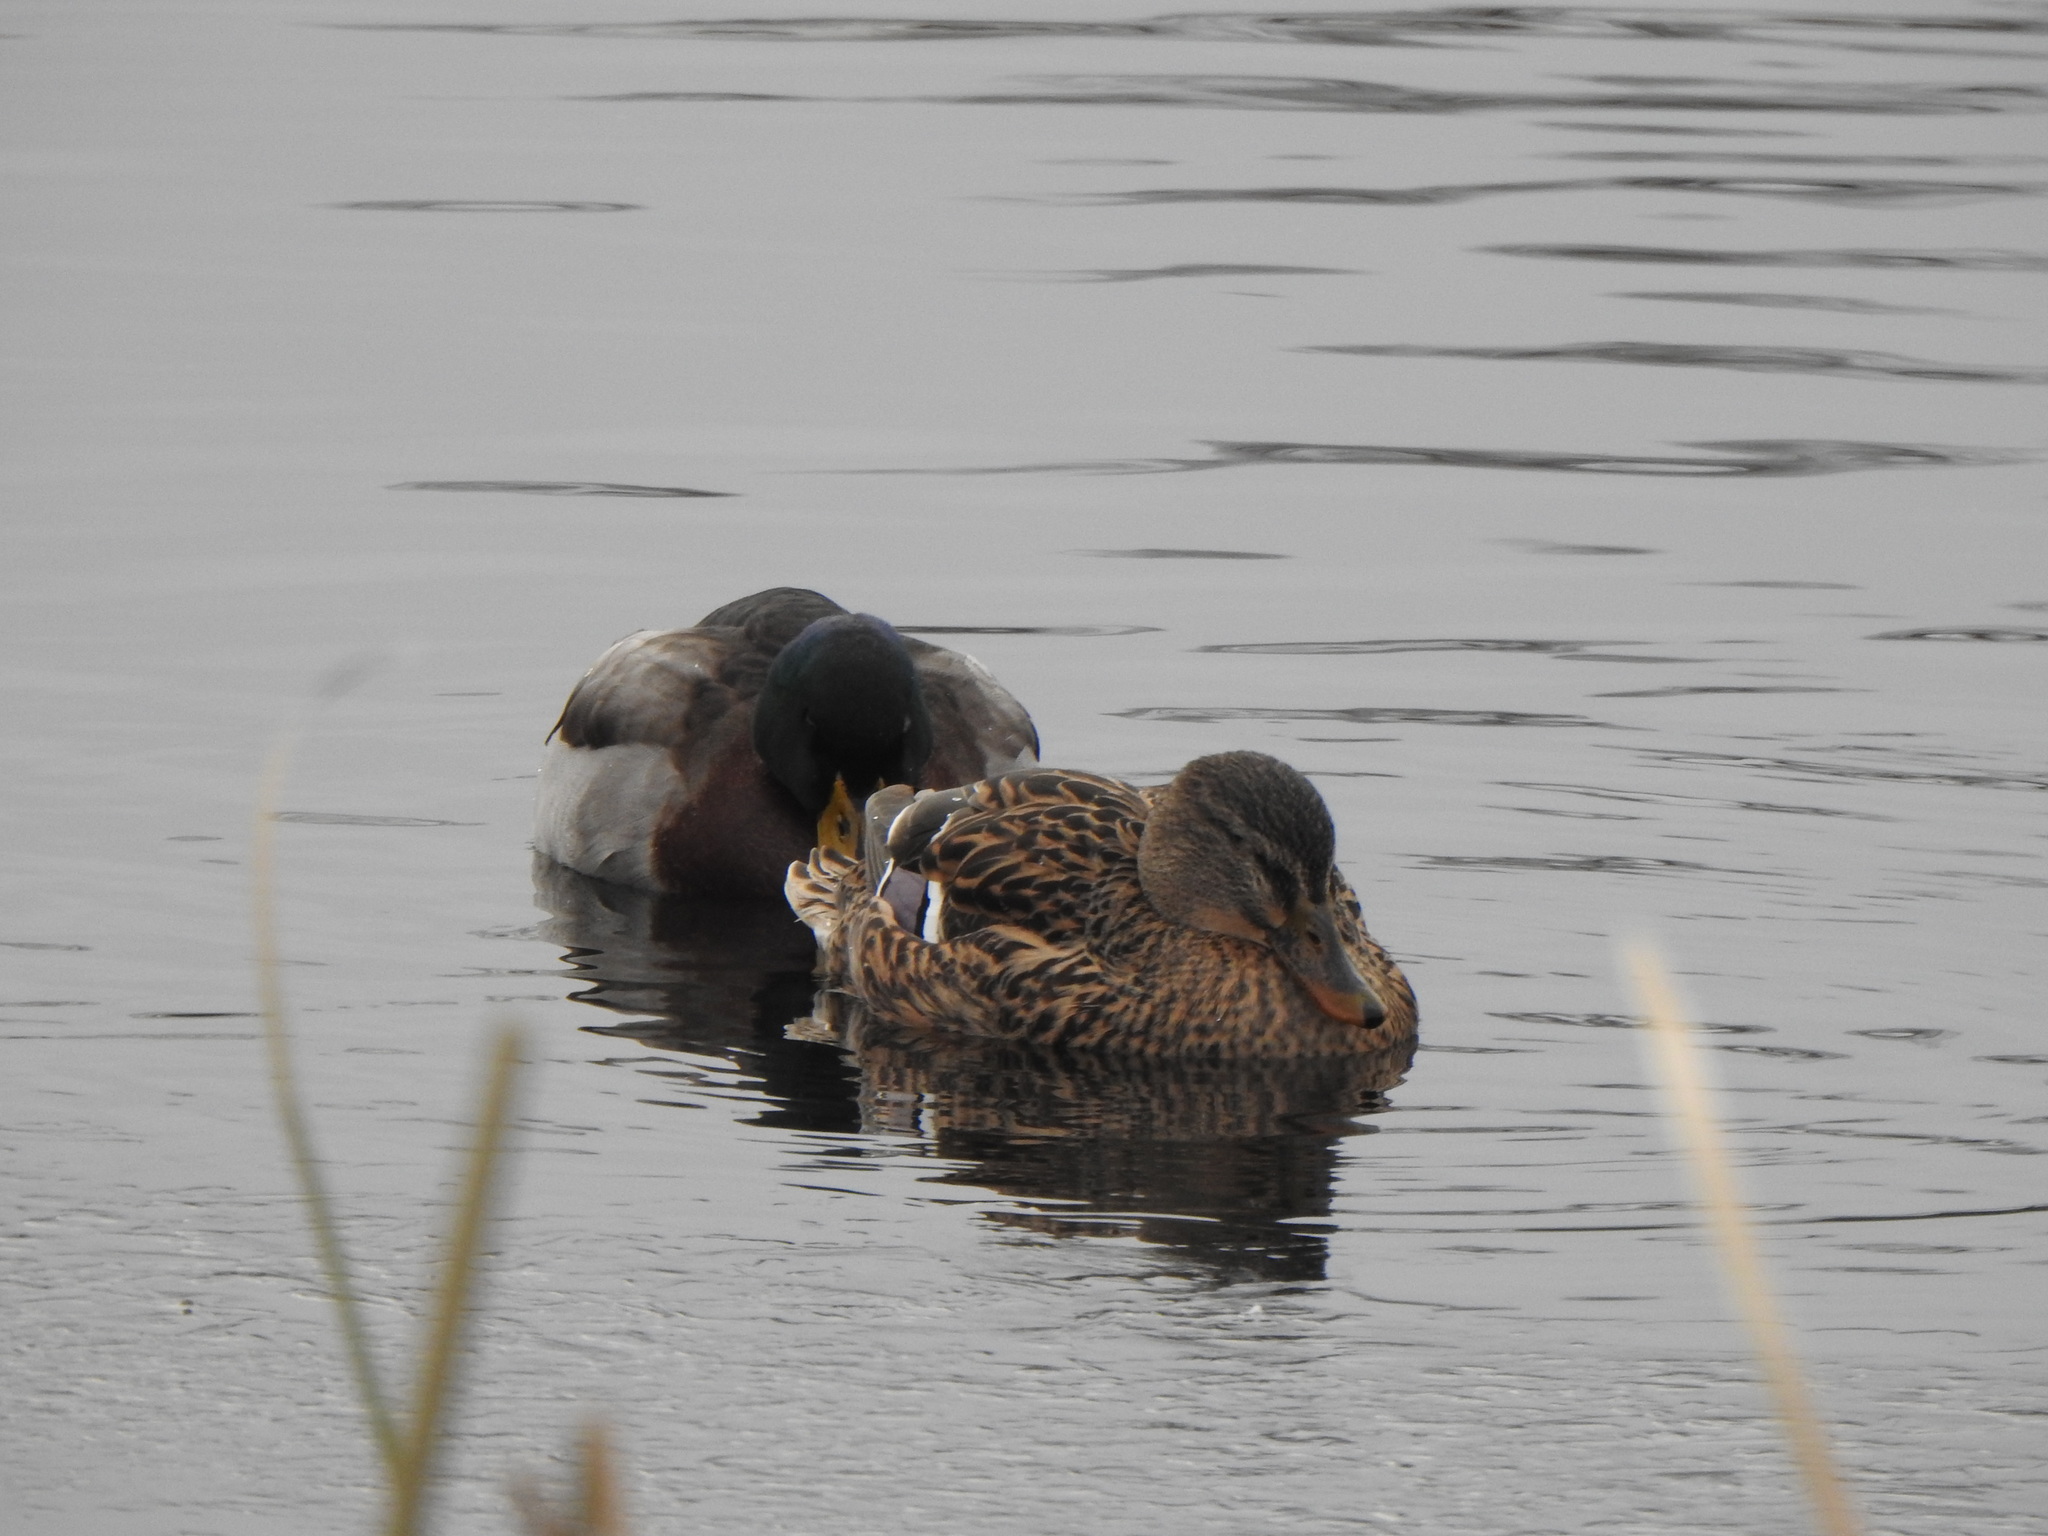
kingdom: Animalia
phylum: Chordata
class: Aves
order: Anseriformes
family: Anatidae
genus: Anas
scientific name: Anas platyrhynchos
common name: Mallard
